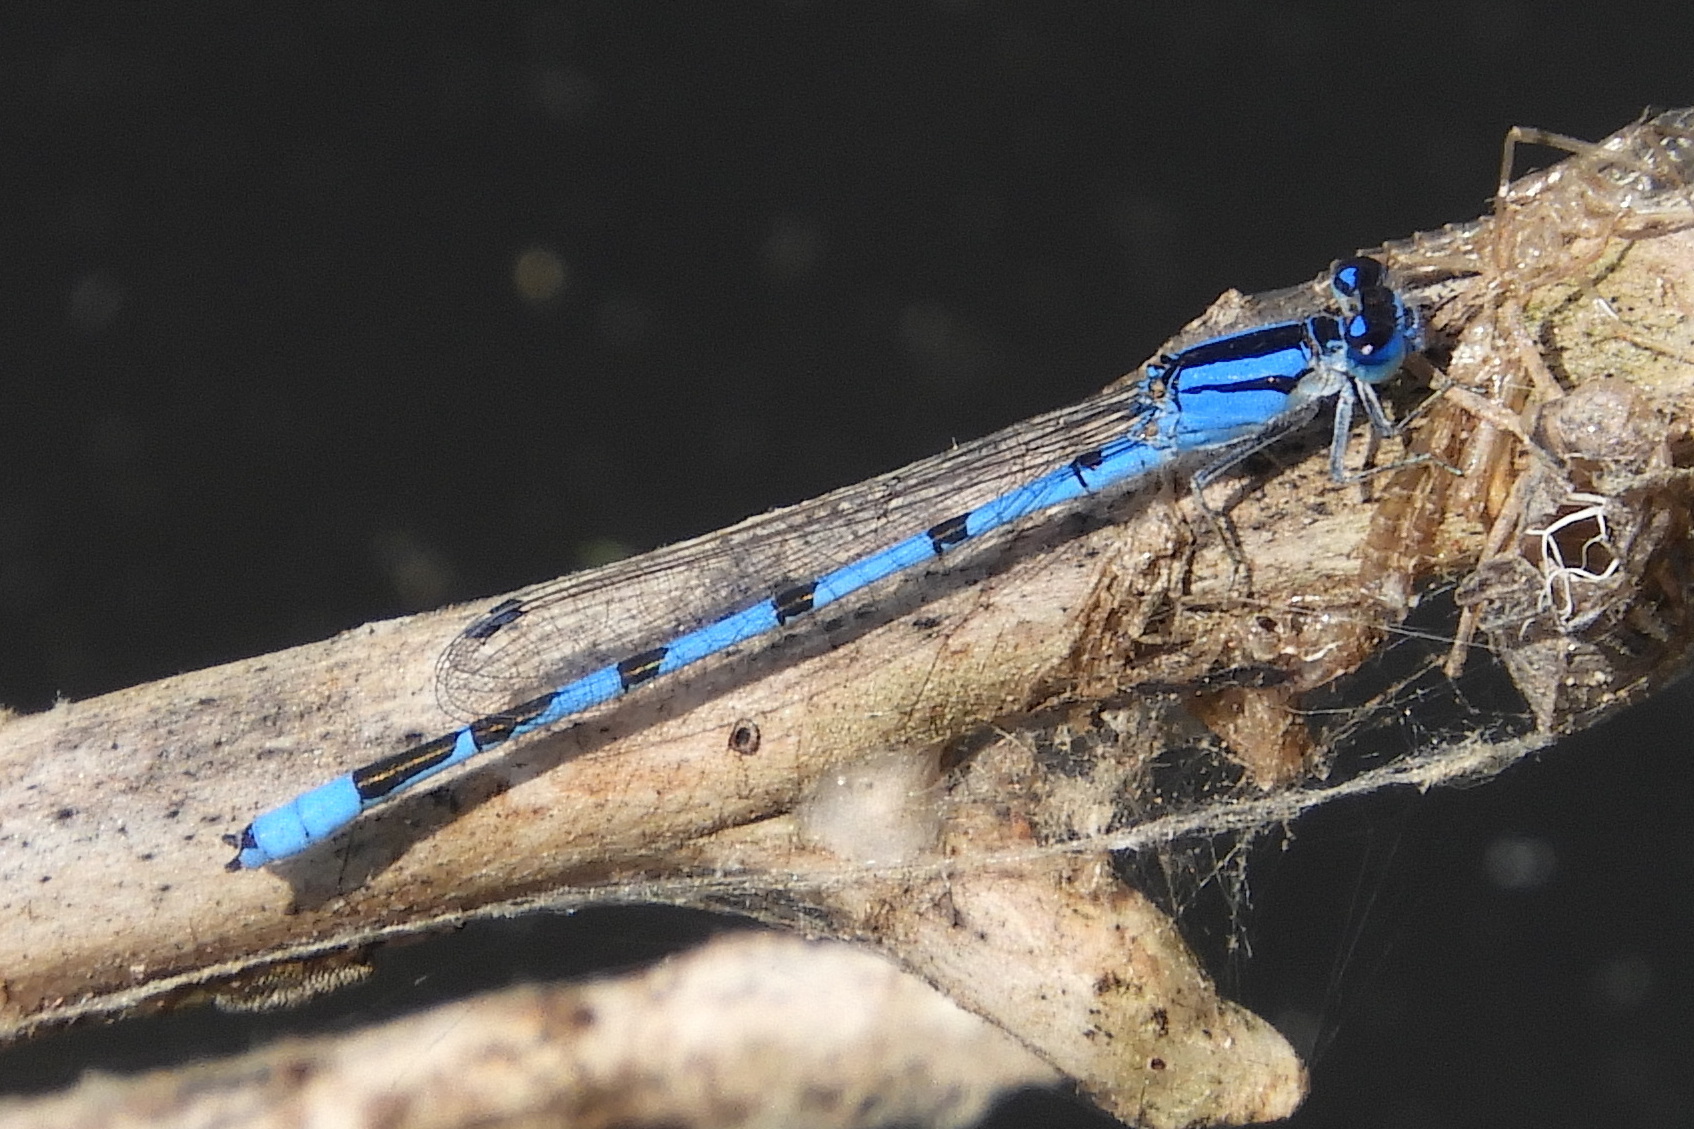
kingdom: Animalia
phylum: Arthropoda
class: Insecta
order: Odonata
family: Coenagrionidae
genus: Enallagma
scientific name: Enallagma civile
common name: Damselfly
